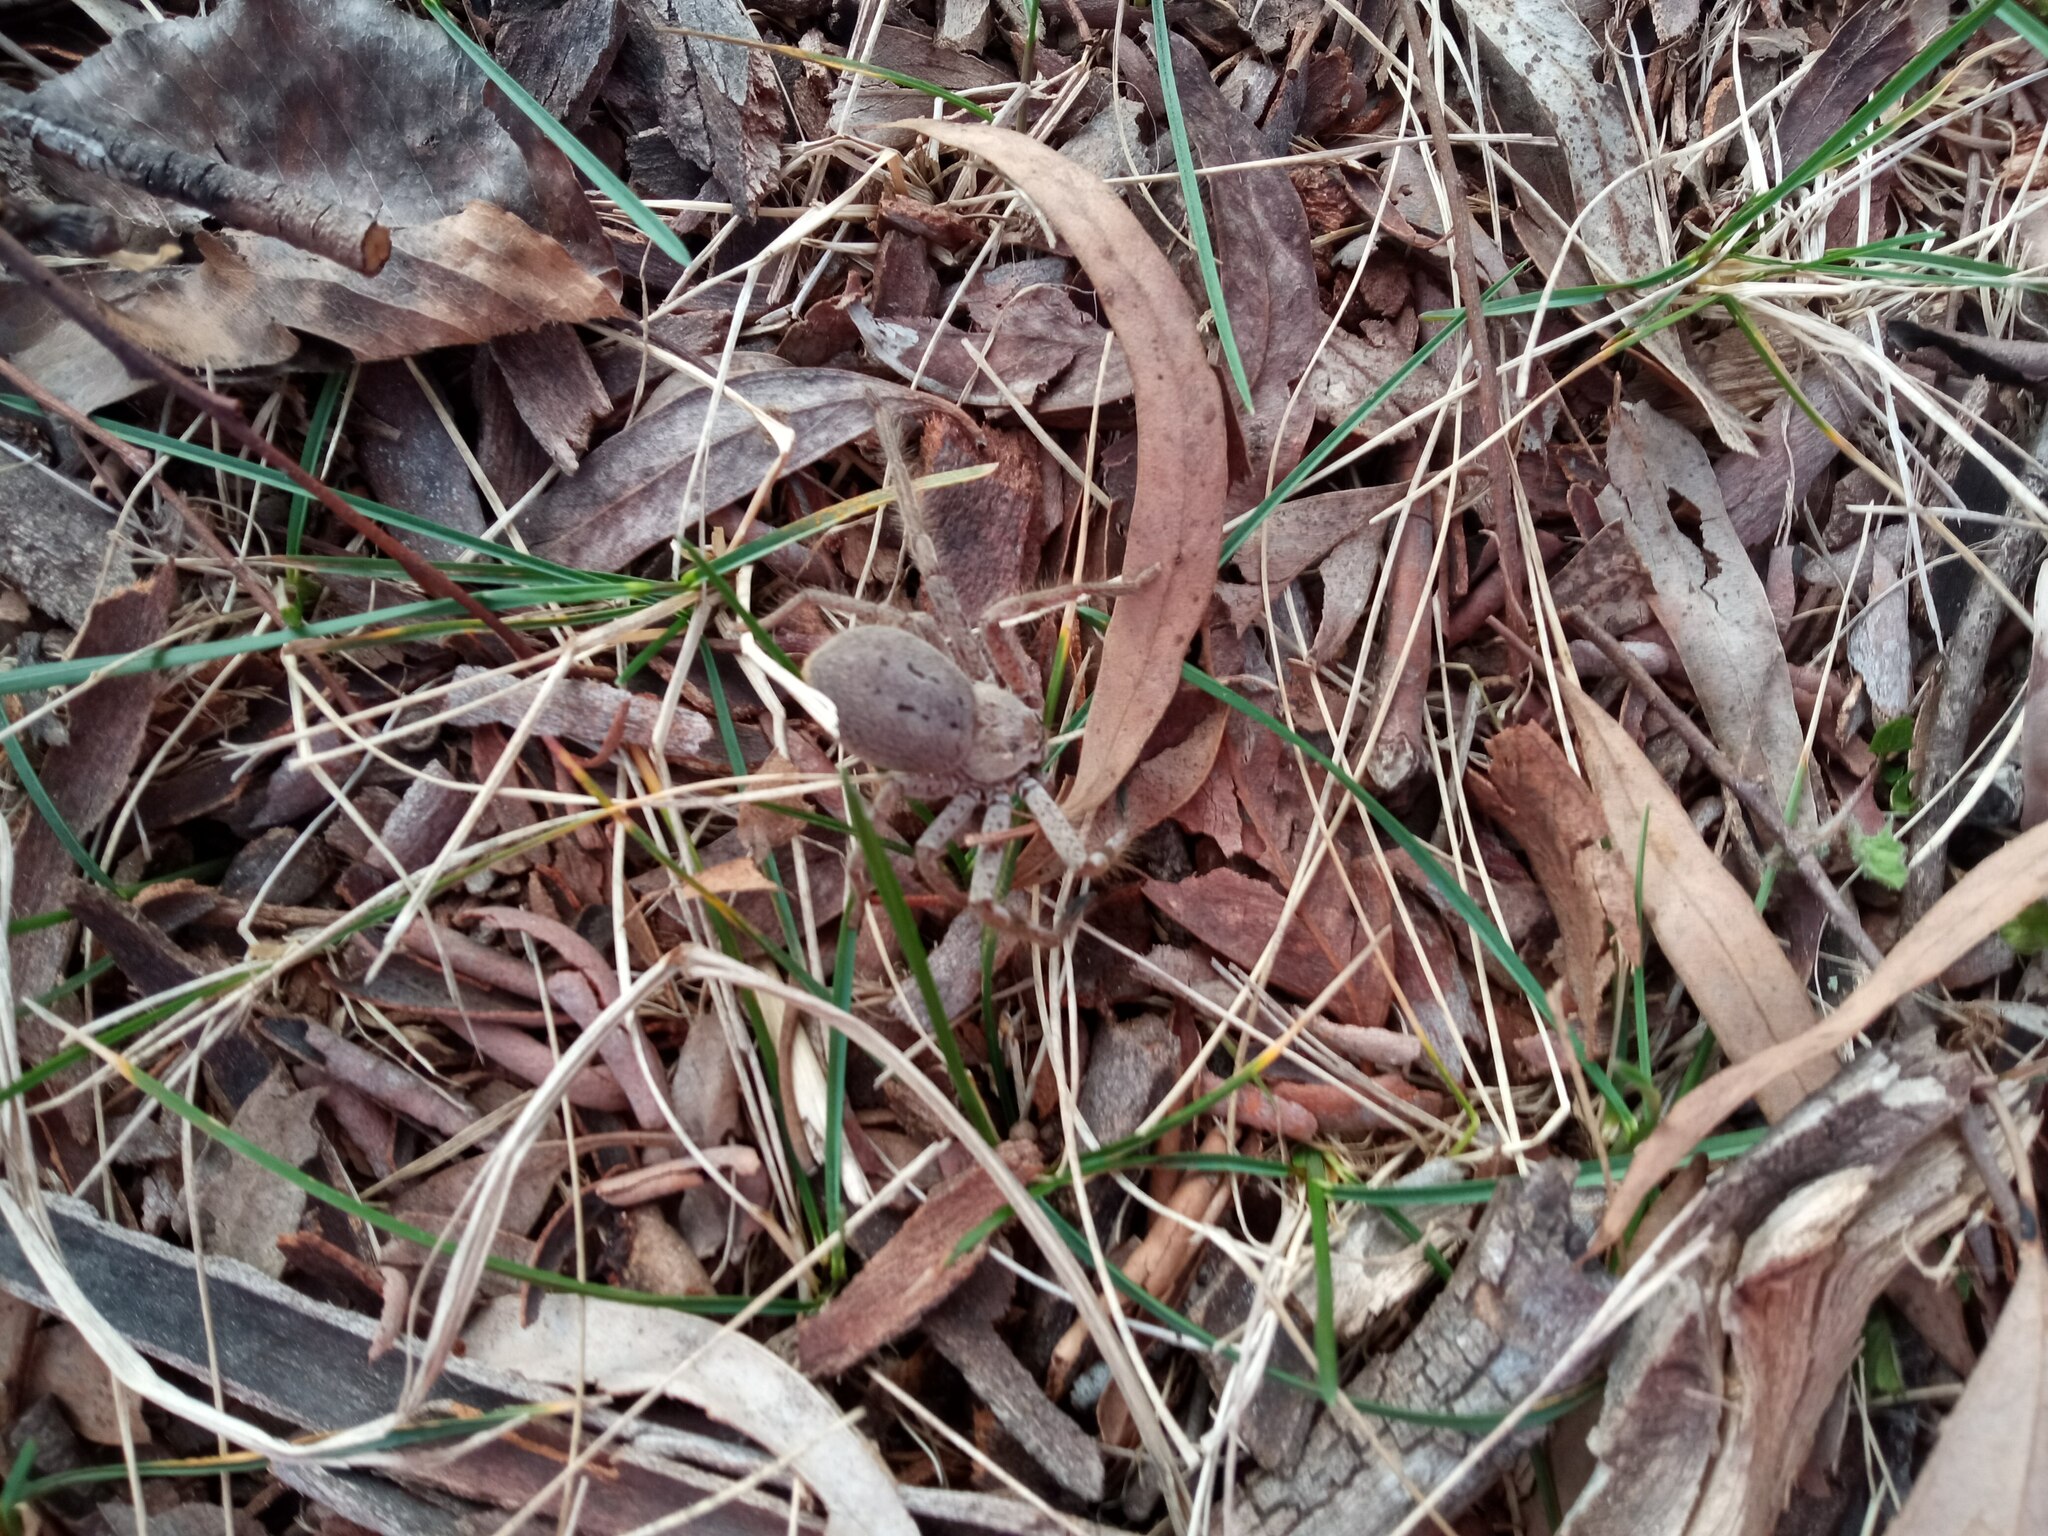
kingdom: Animalia
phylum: Arthropoda
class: Arachnida
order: Araneae
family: Sparassidae
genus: Isopeda
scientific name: Isopeda canberrana
